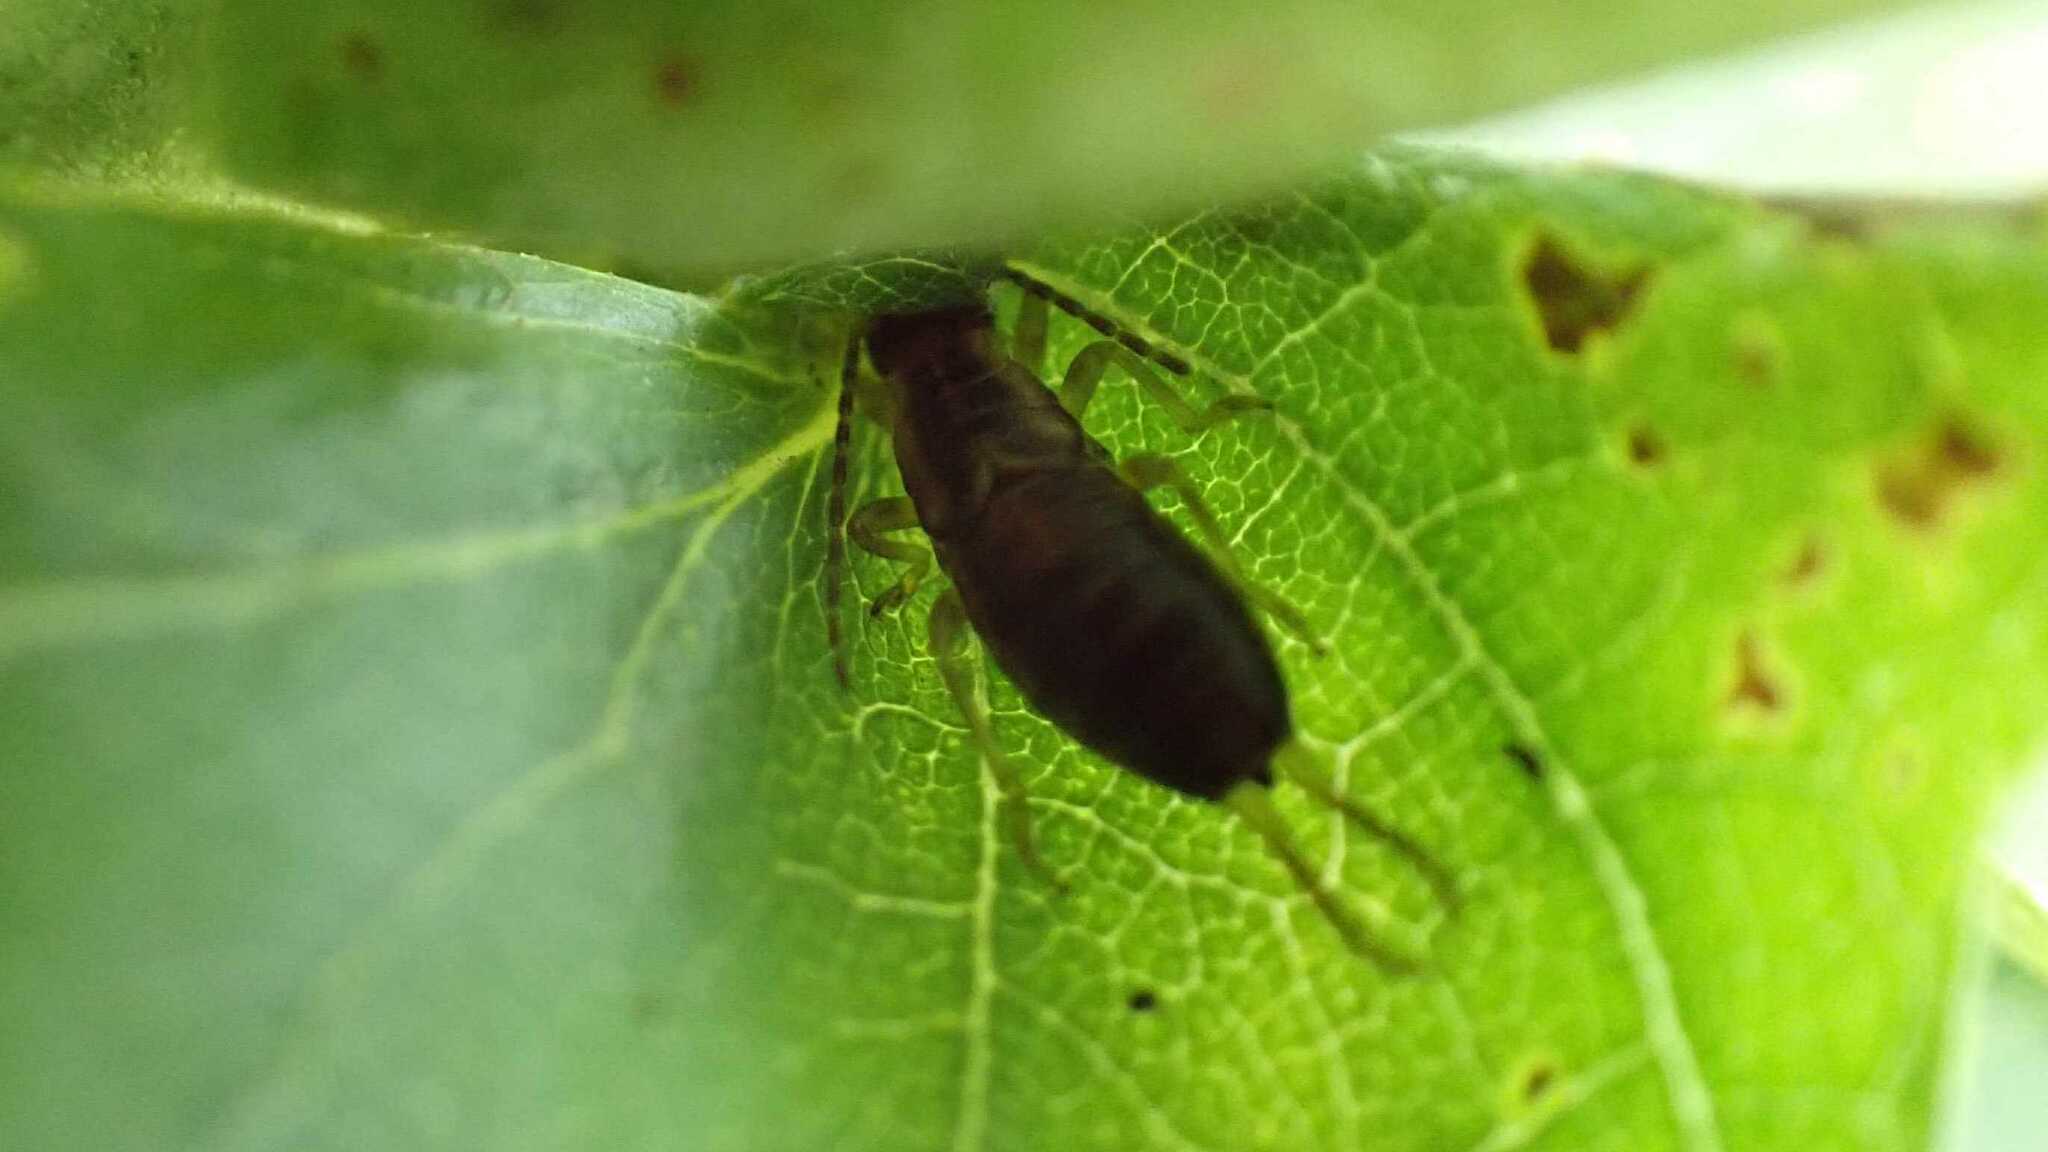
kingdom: Animalia
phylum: Arthropoda
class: Insecta
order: Dermaptera
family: Forficulidae
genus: Forficula
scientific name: Forficula
